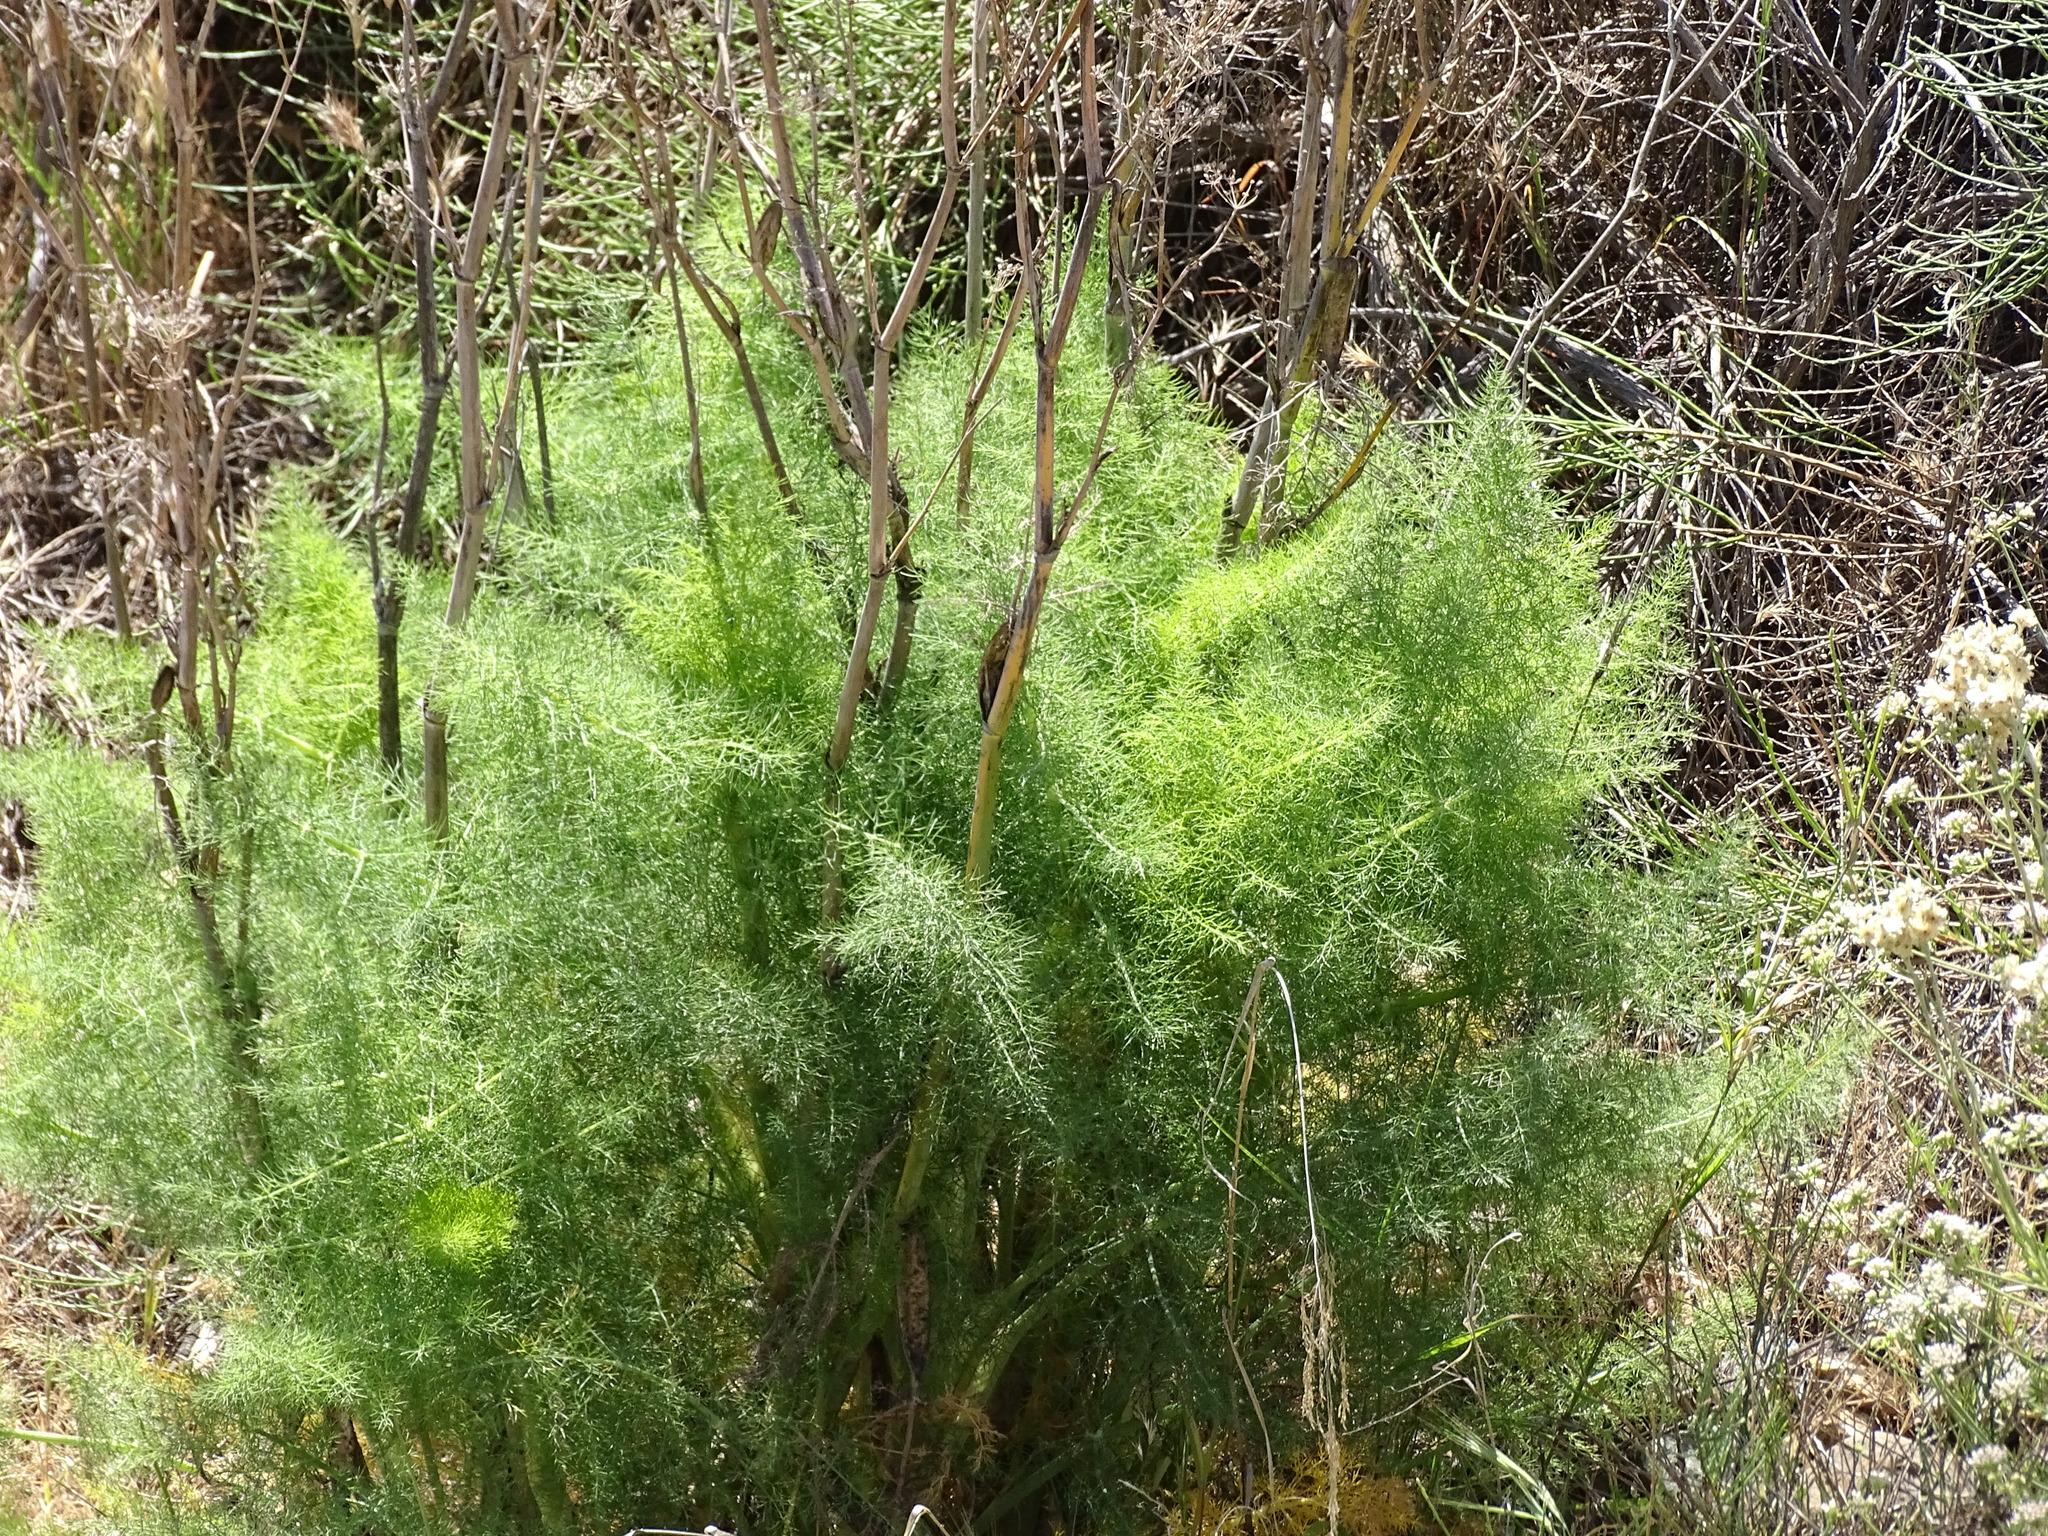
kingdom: Plantae
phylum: Tracheophyta
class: Magnoliopsida
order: Apiales
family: Apiaceae
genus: Foeniculum
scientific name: Foeniculum vulgare
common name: Fennel
